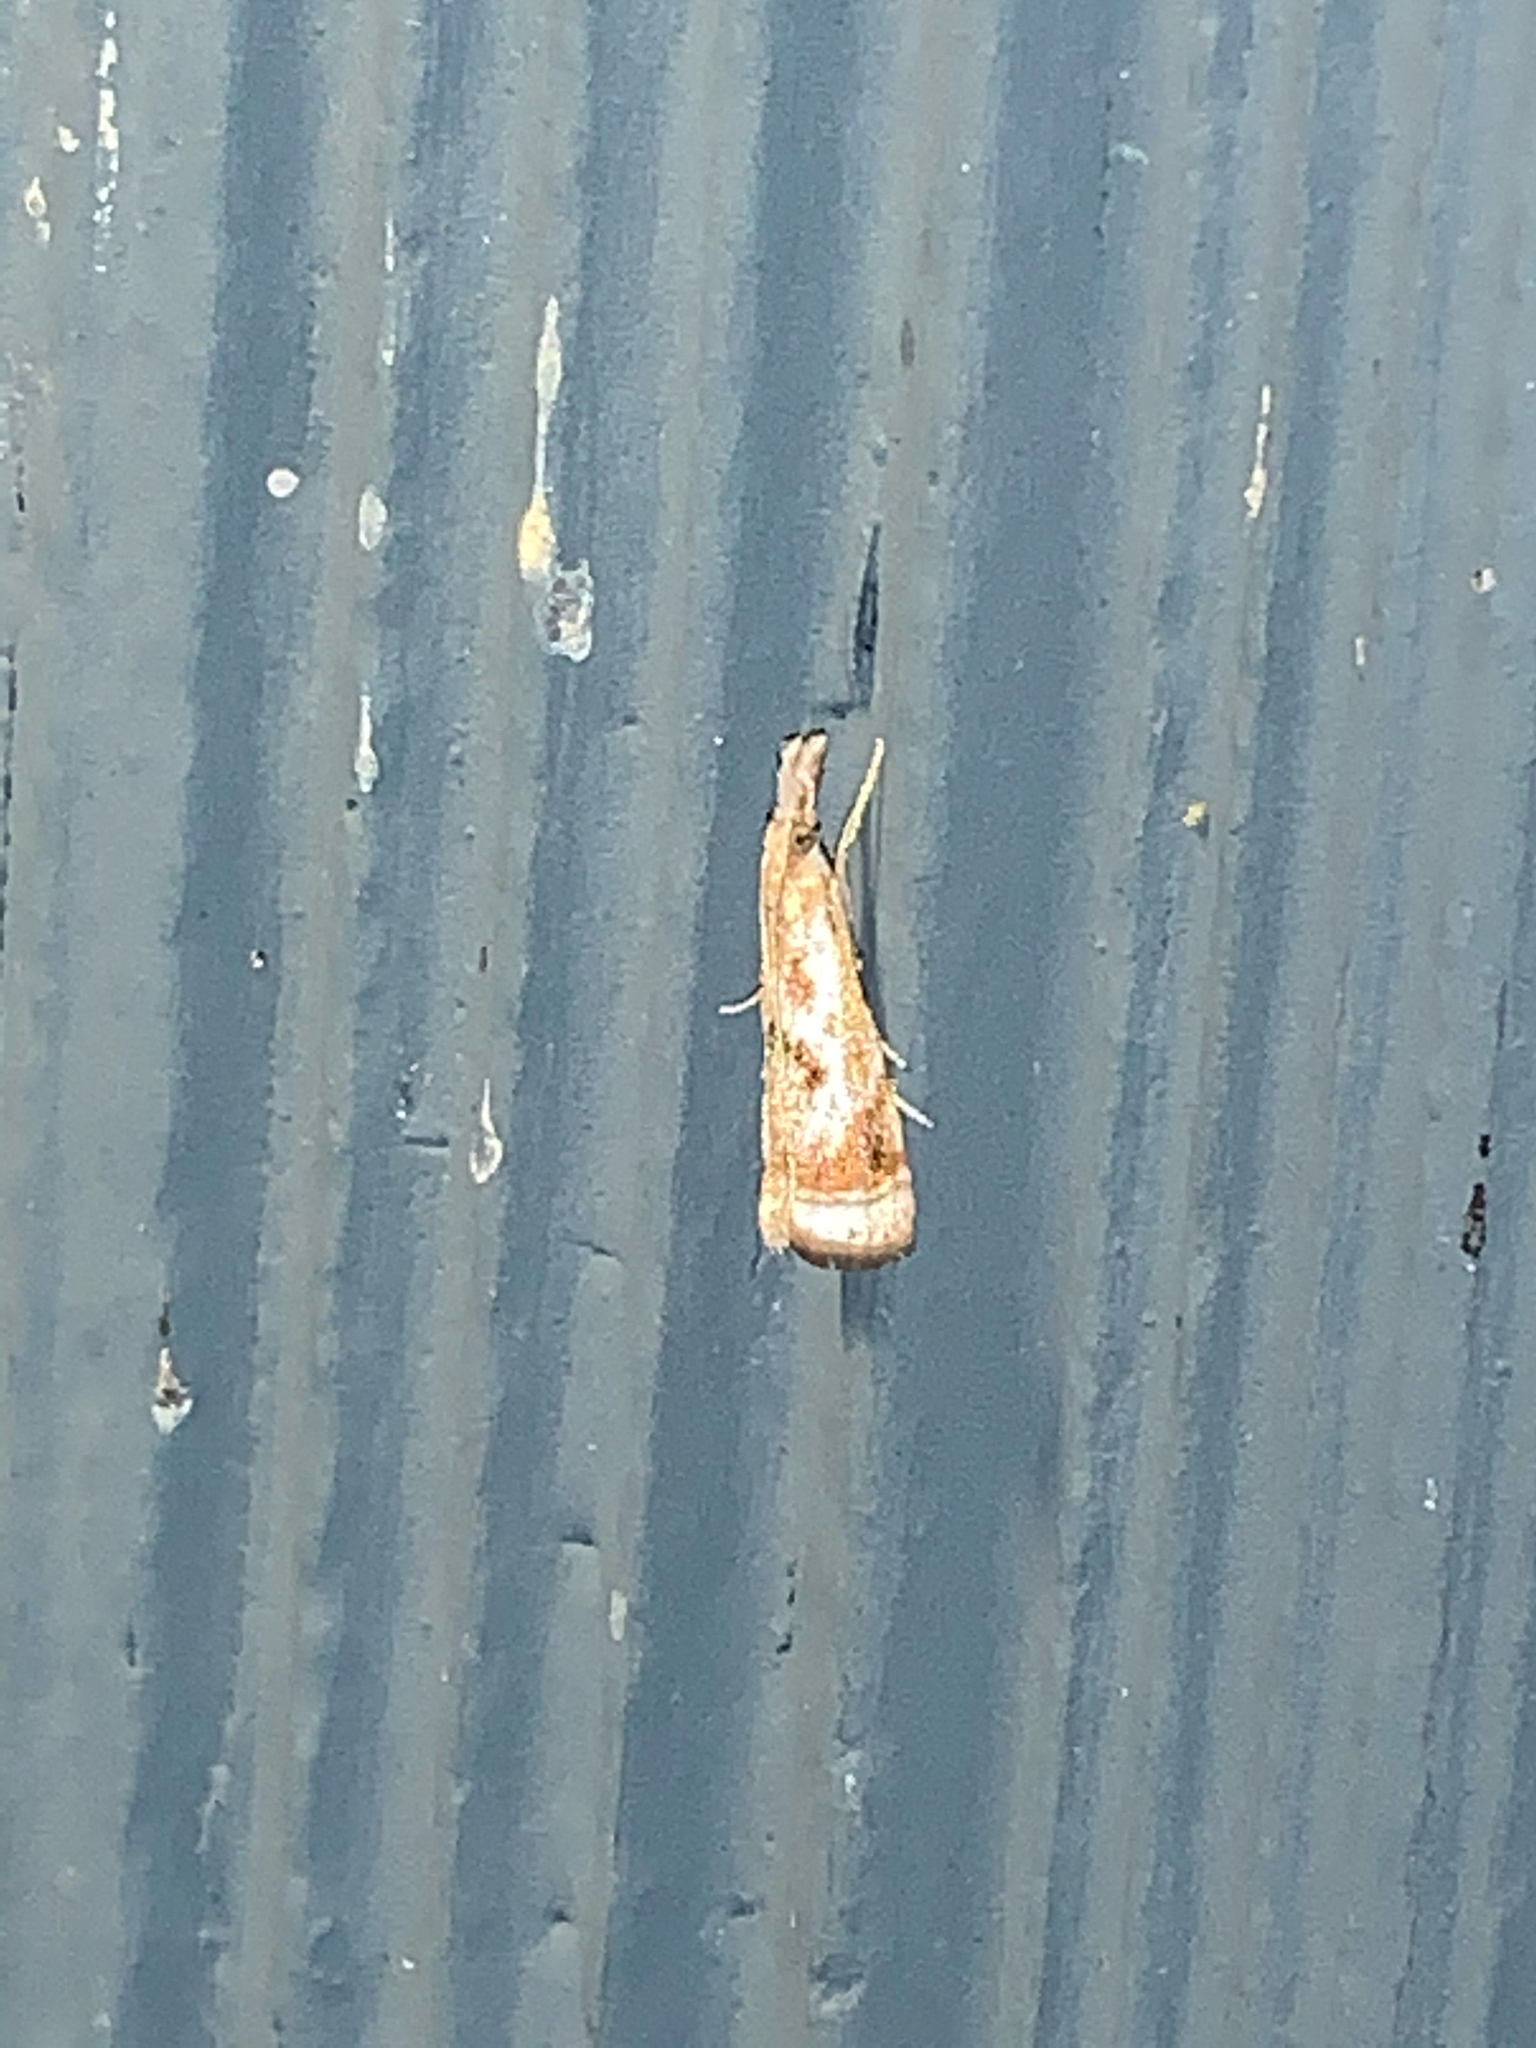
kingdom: Animalia
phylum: Arthropoda
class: Insecta
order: Lepidoptera
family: Crambidae
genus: Microcrambus
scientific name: Microcrambus elegans
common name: Elegant grass-veneer
